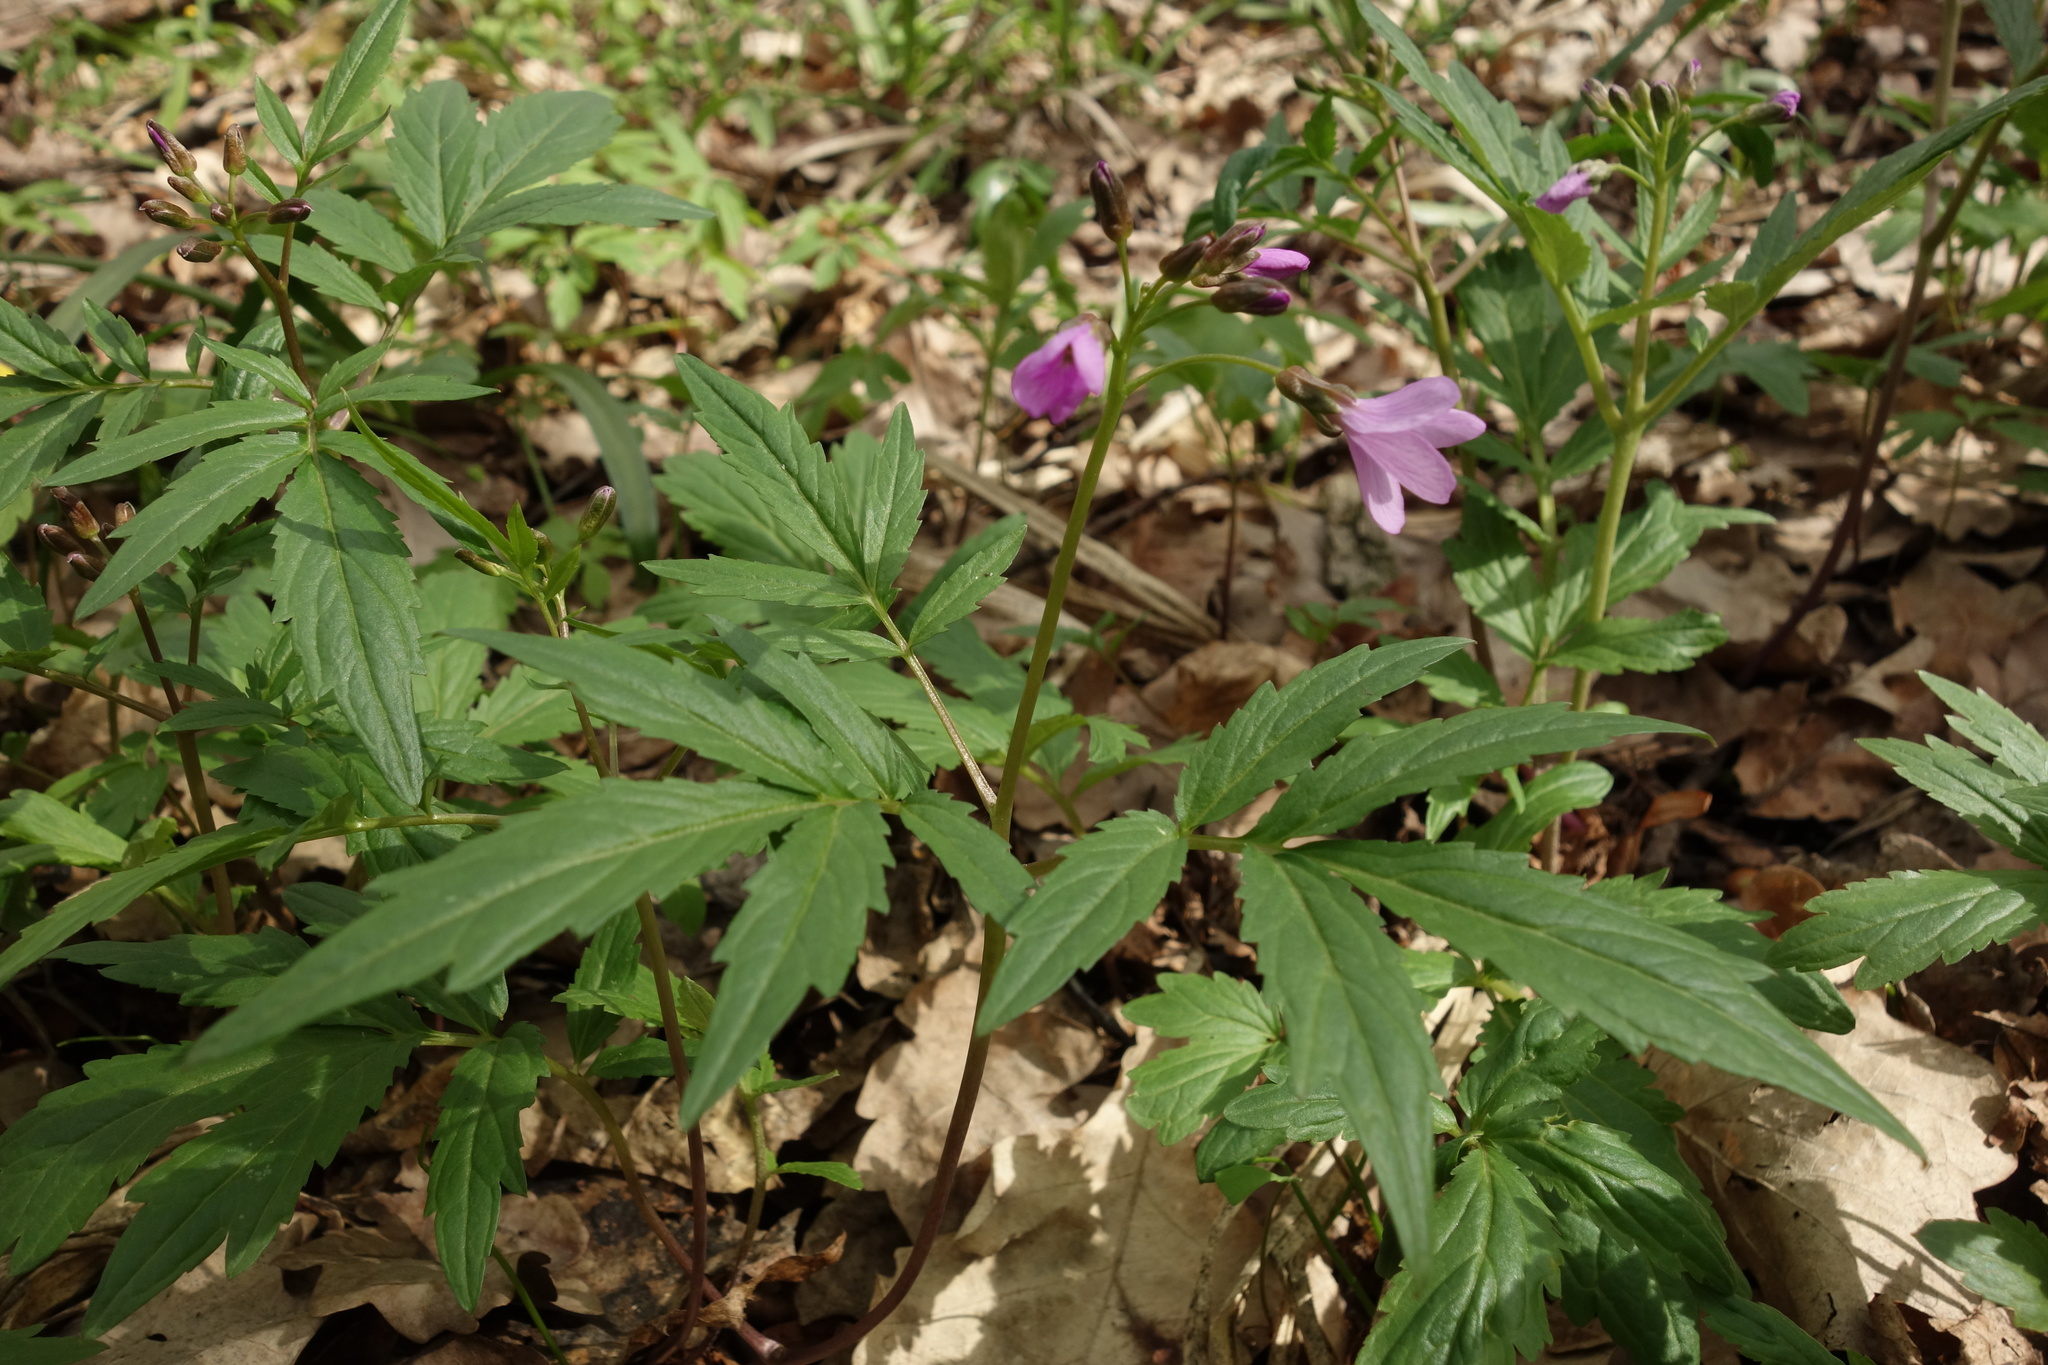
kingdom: Plantae
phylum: Tracheophyta
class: Magnoliopsida
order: Brassicales
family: Brassicaceae
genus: Cardamine
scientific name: Cardamine quinquefolia
